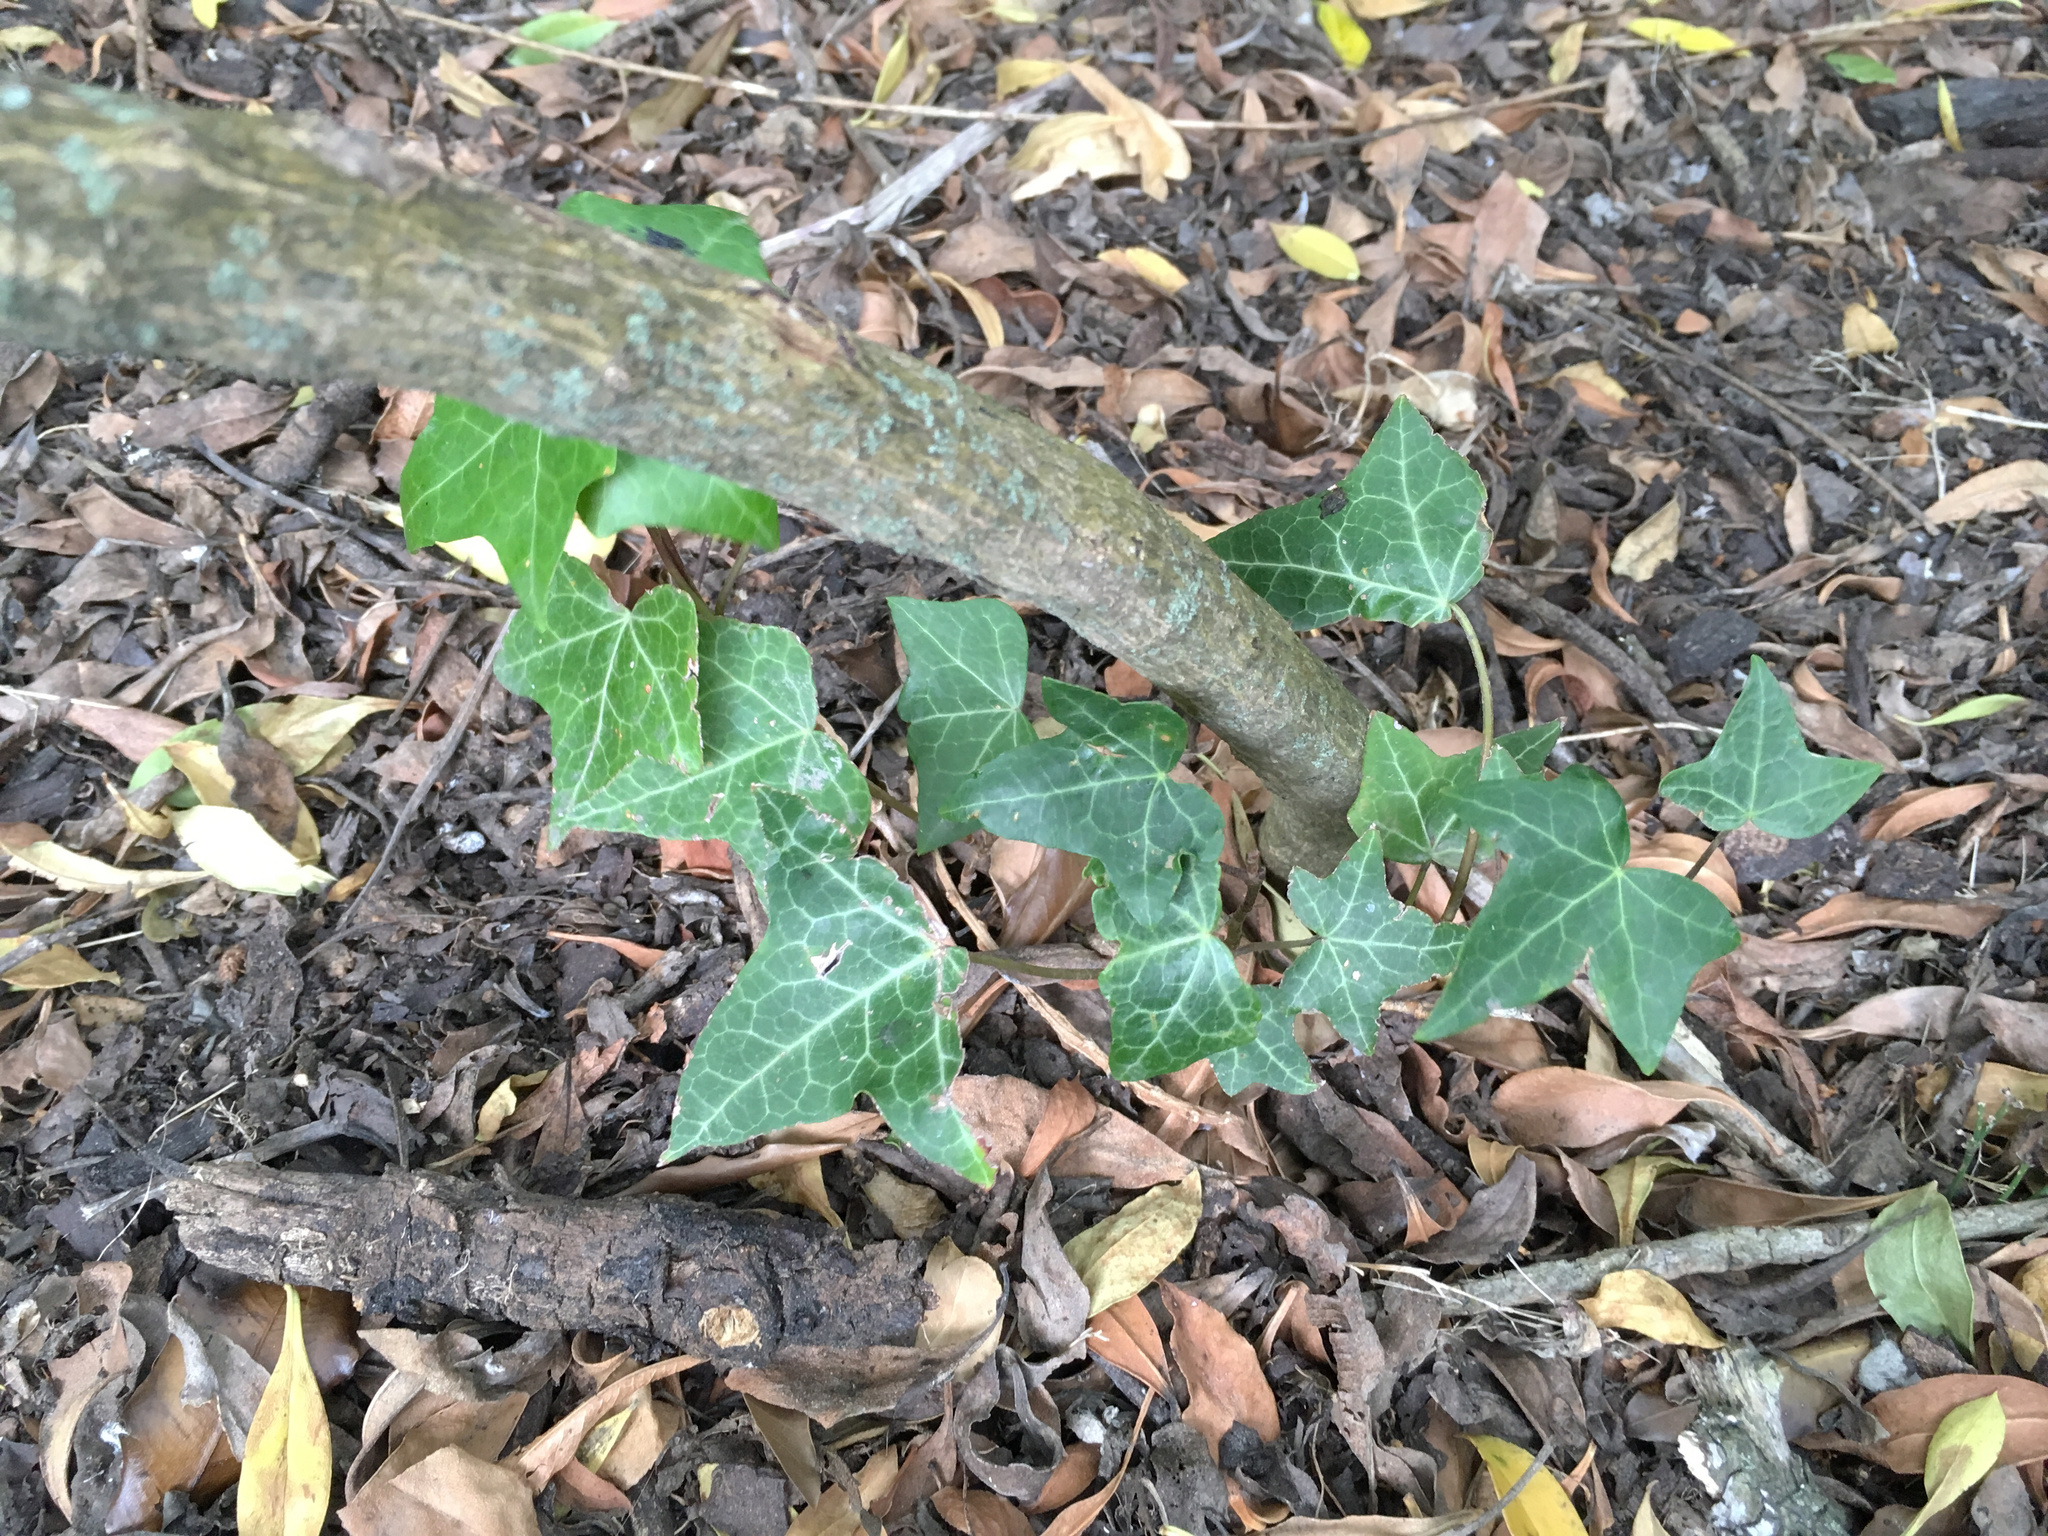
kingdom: Plantae
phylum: Tracheophyta
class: Magnoliopsida
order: Apiales
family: Araliaceae
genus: Hedera
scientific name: Hedera helix
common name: Ivy
